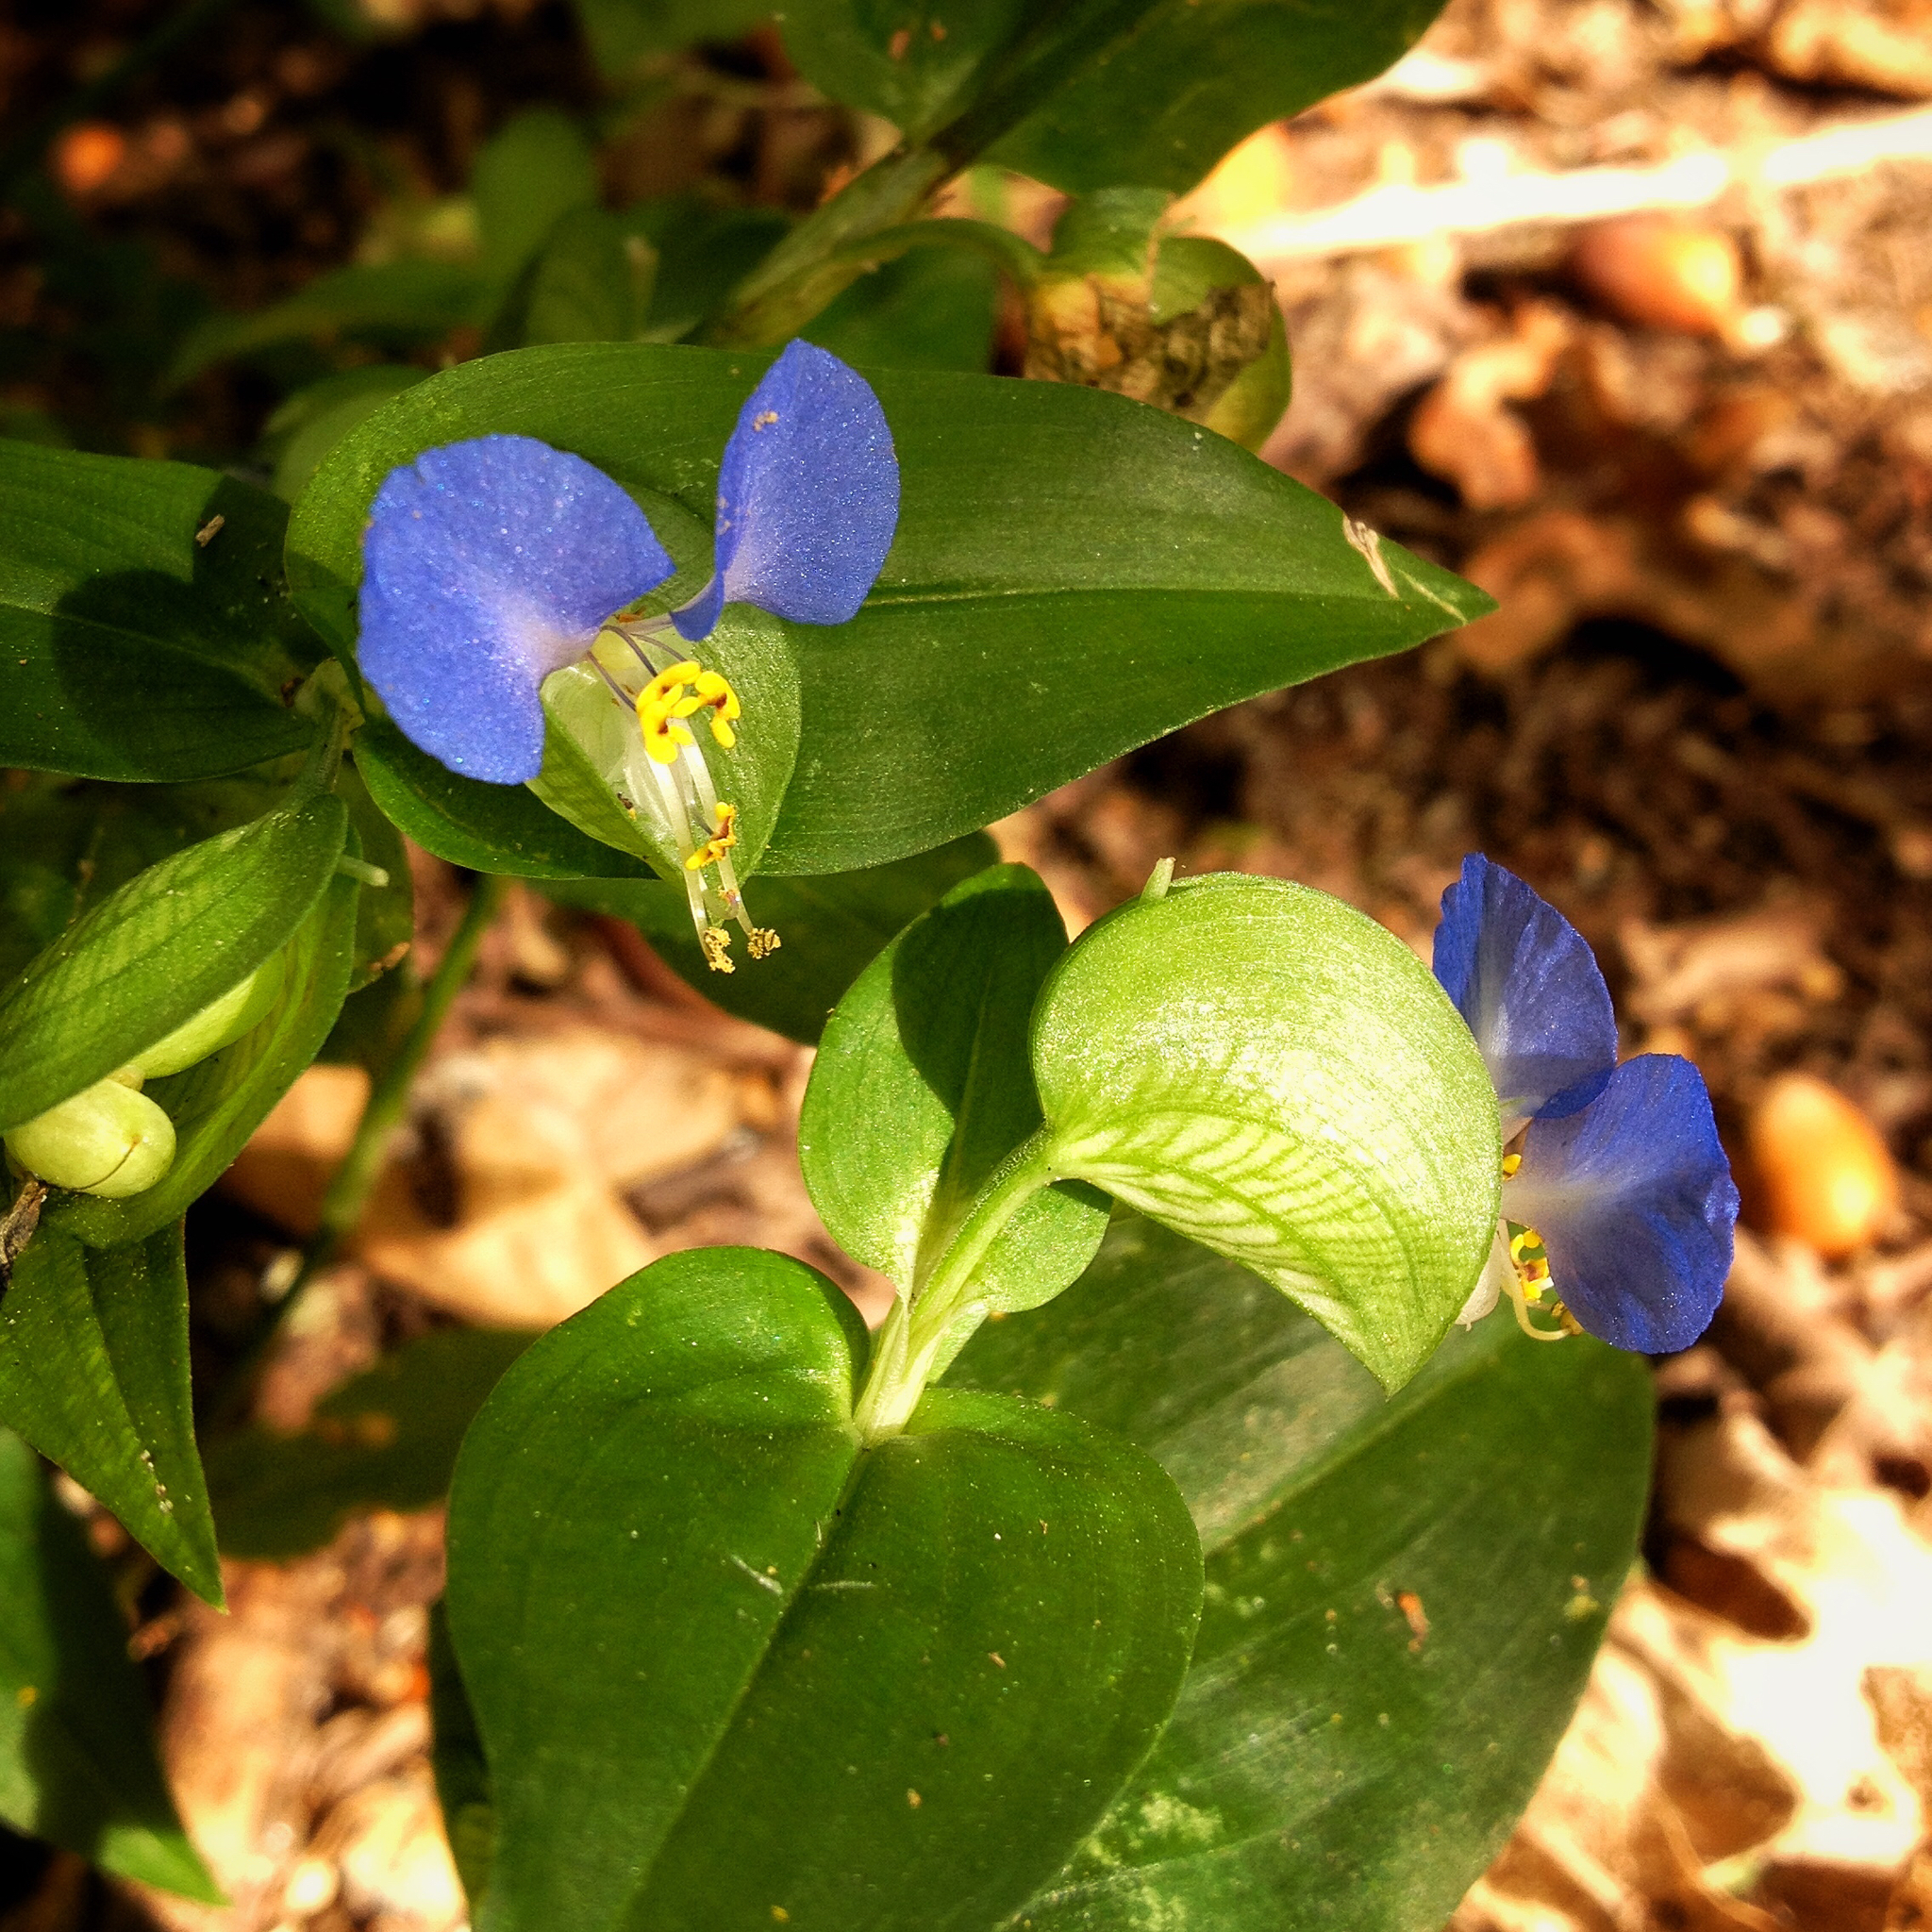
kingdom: Plantae
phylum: Tracheophyta
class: Liliopsida
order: Commelinales
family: Commelinaceae
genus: Commelina
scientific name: Commelina communis
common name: Asiatic dayflower
